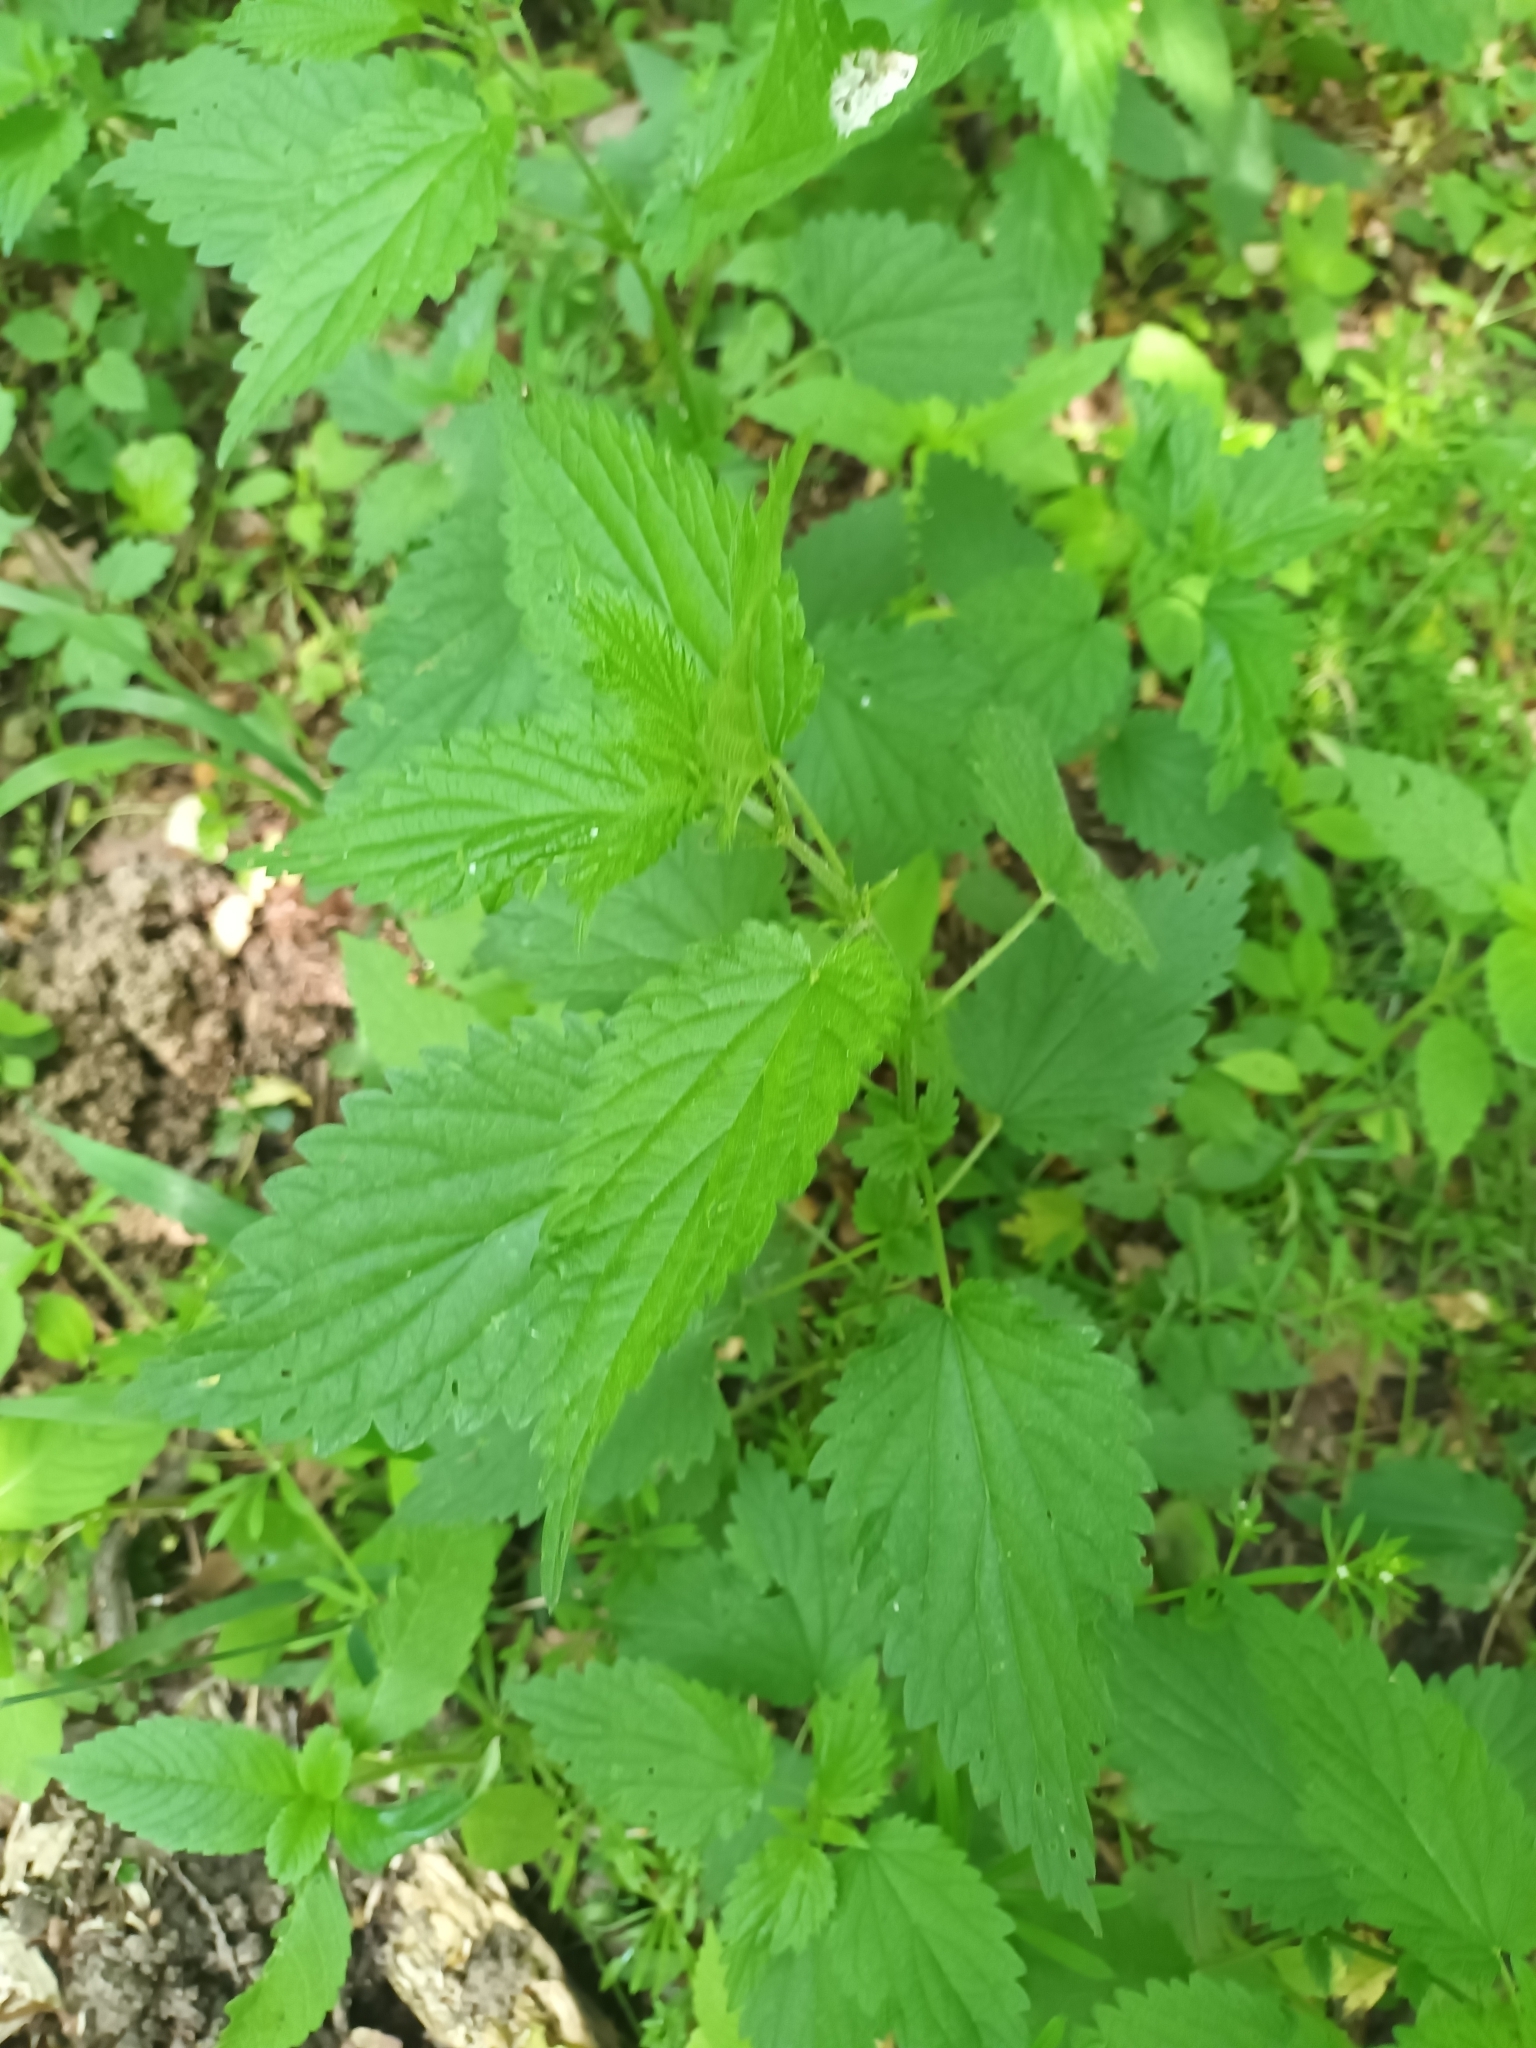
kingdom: Plantae
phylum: Tracheophyta
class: Magnoliopsida
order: Rosales
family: Urticaceae
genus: Urtica
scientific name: Urtica dioica
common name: Common nettle
